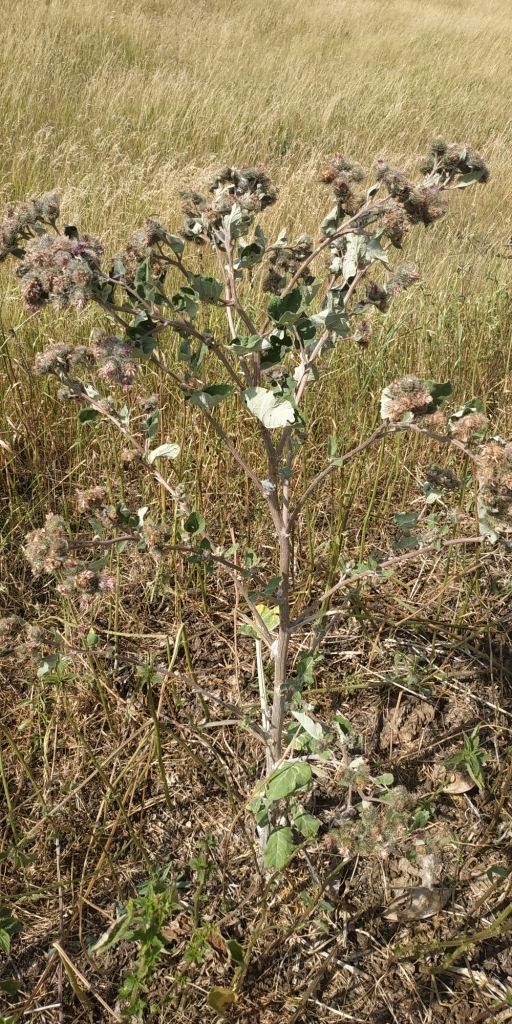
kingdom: Plantae
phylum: Tracheophyta
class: Magnoliopsida
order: Asterales
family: Asteraceae
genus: Arctium
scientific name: Arctium tomentosum
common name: Woolly burdock
